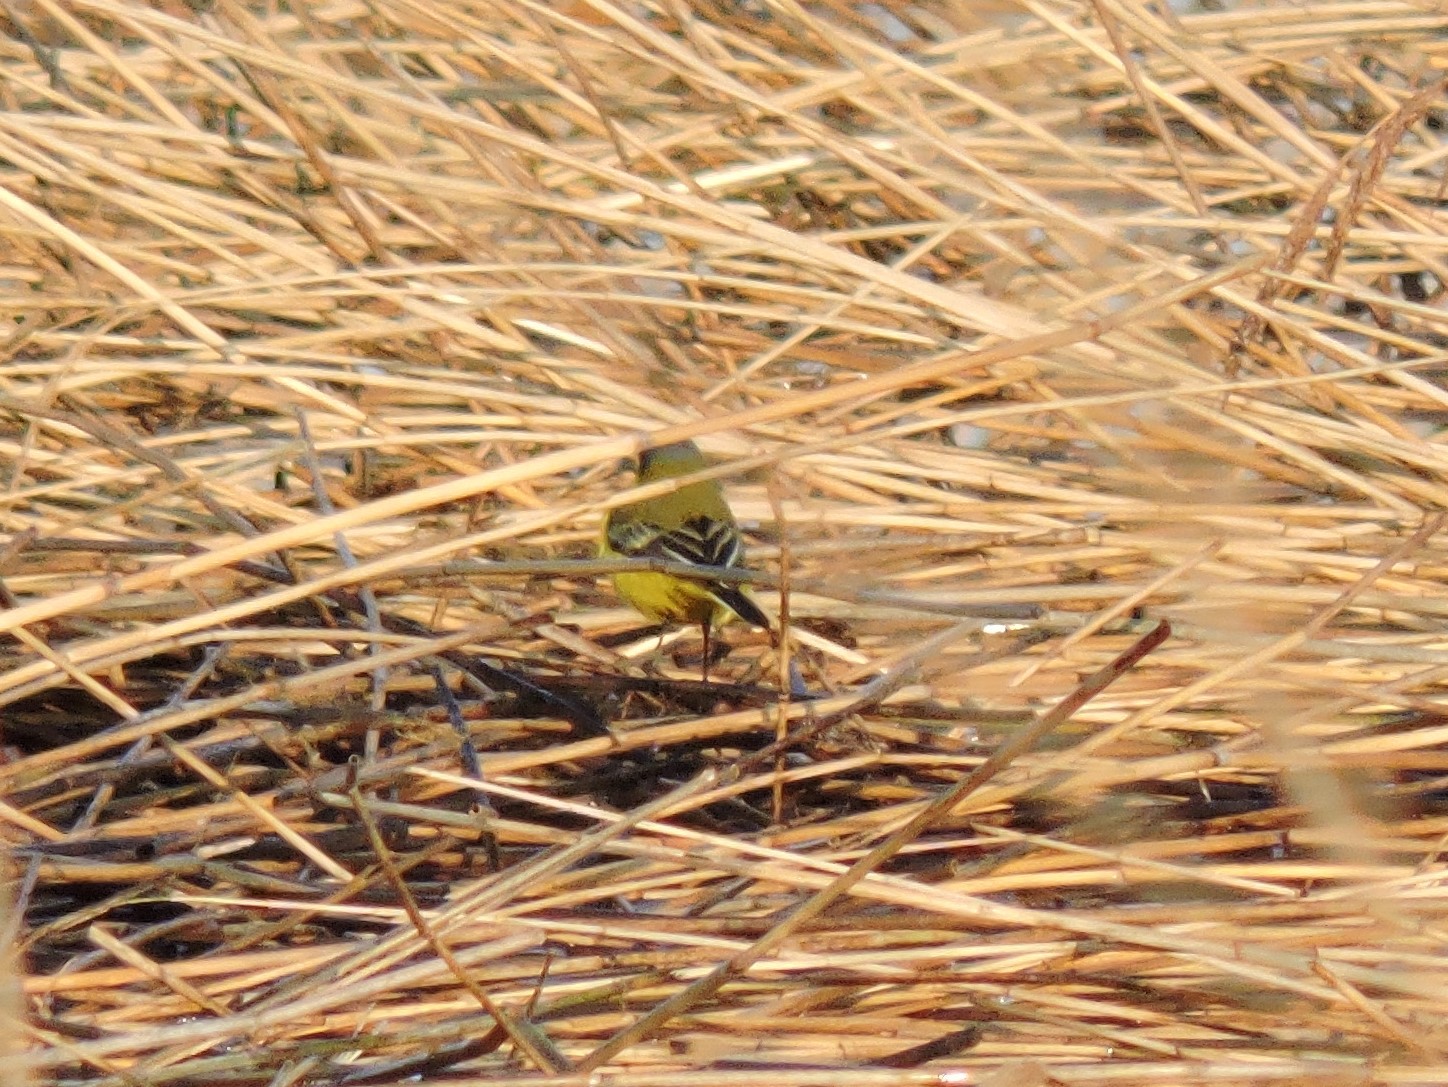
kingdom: Animalia
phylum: Chordata
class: Aves
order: Passeriformes
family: Motacillidae
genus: Motacilla
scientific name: Motacilla flava
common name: Western yellow wagtail
